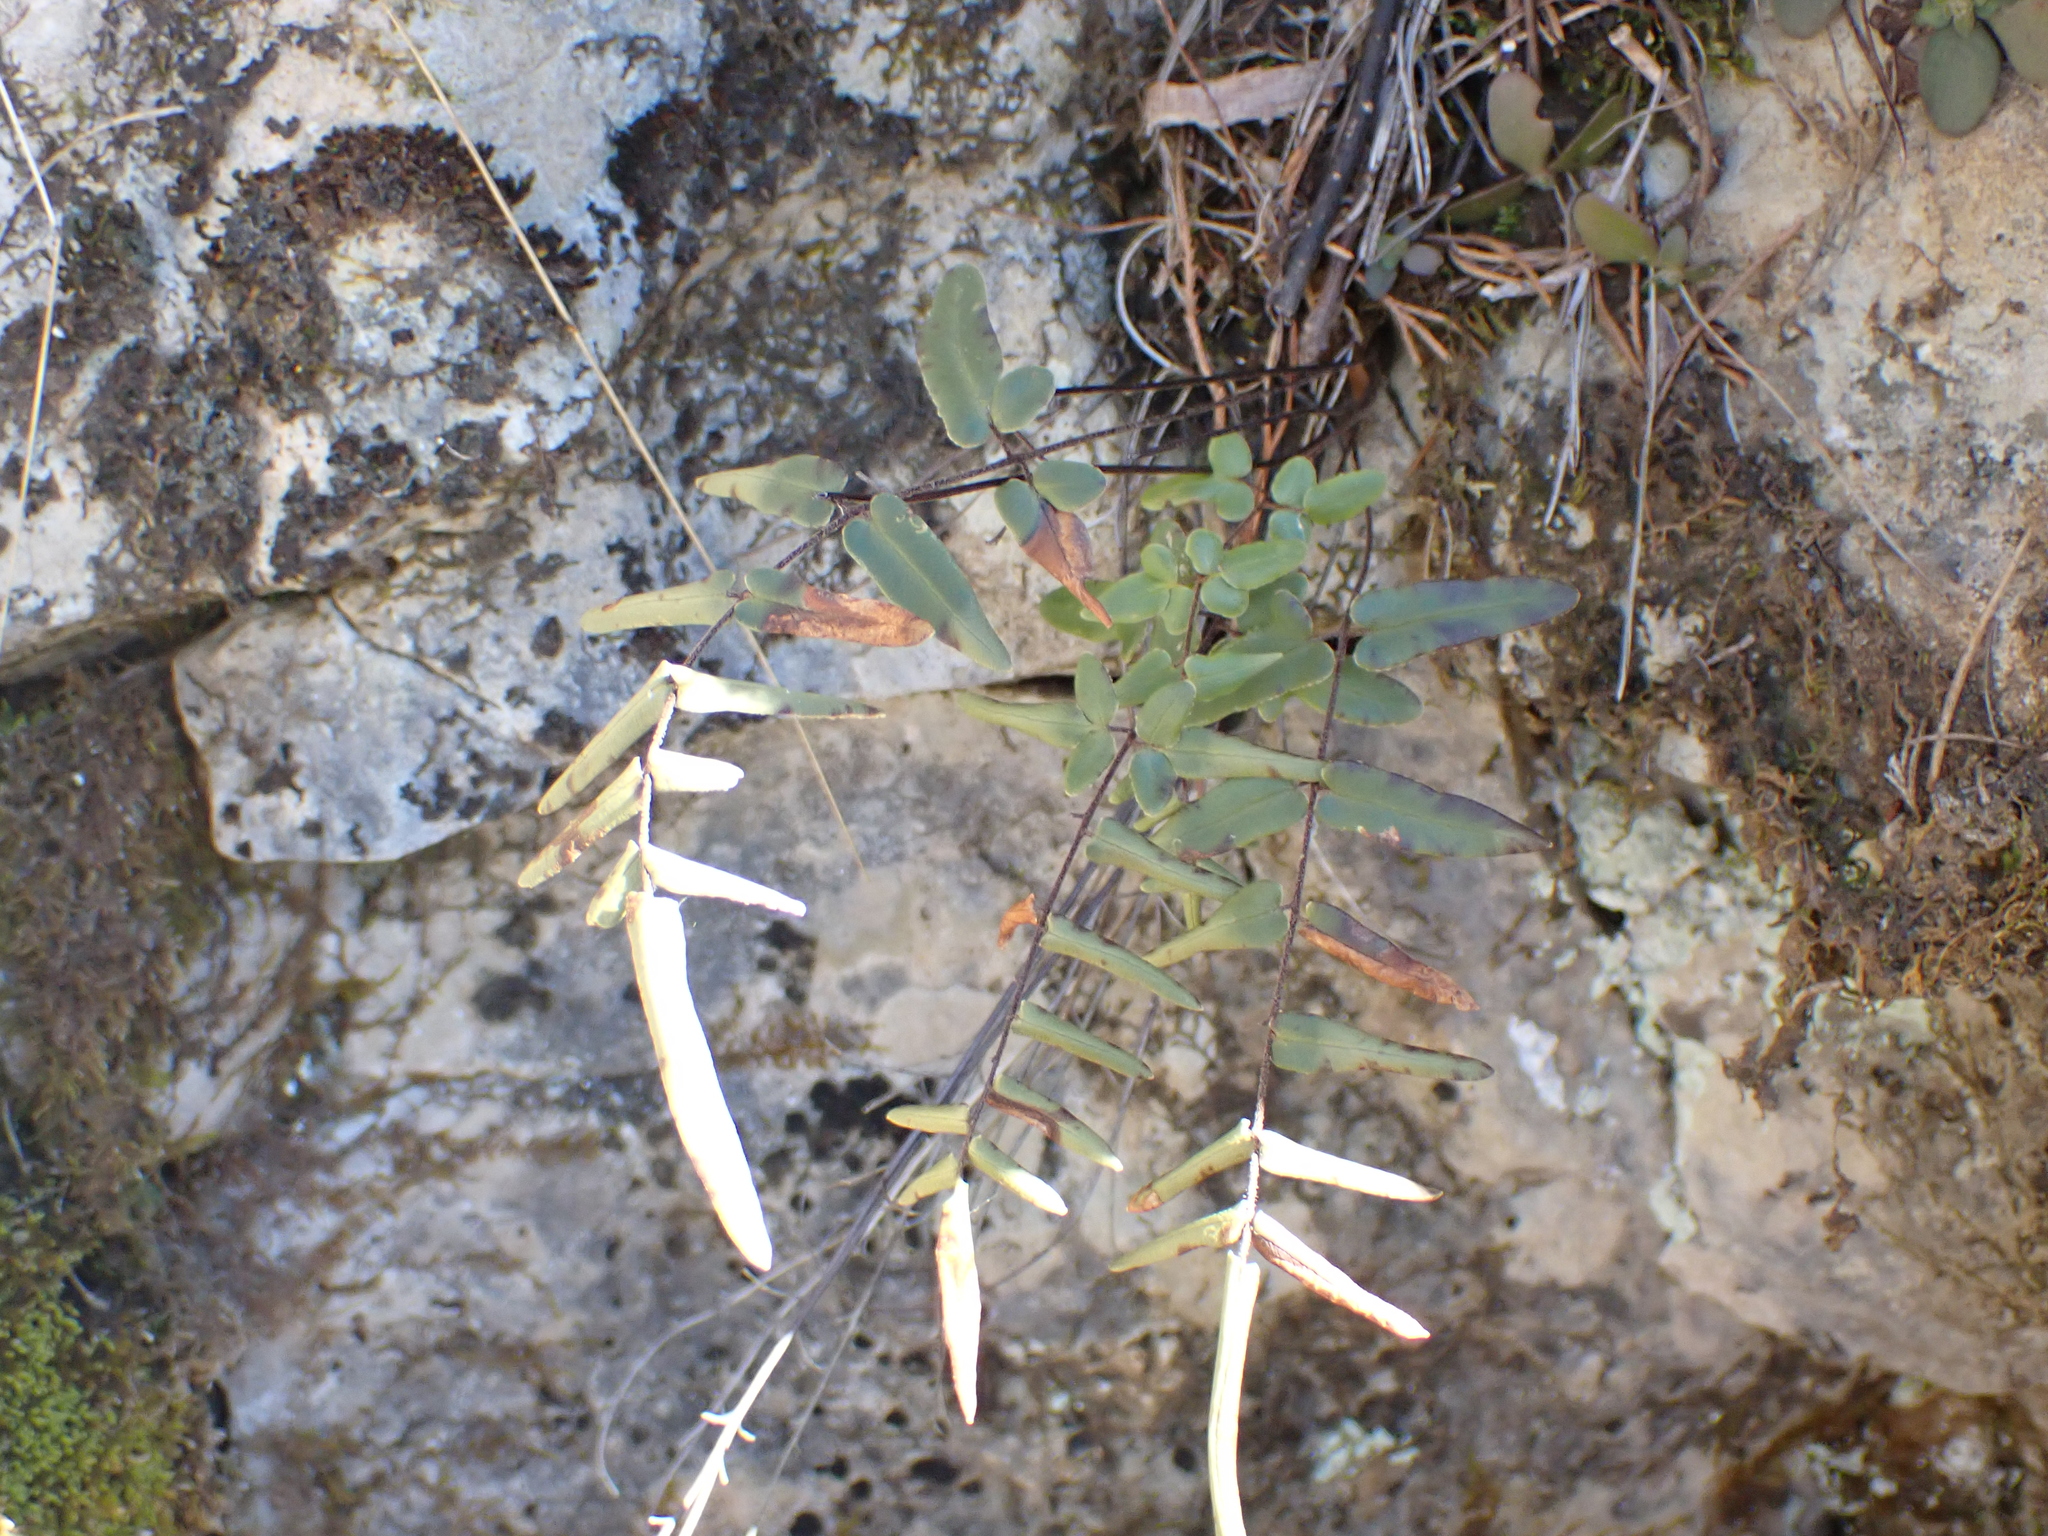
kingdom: Plantae
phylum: Tracheophyta
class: Polypodiopsida
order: Polypodiales
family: Pteridaceae
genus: Pellaea
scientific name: Pellaea atropurpurea
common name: Hairy cliffbrake
